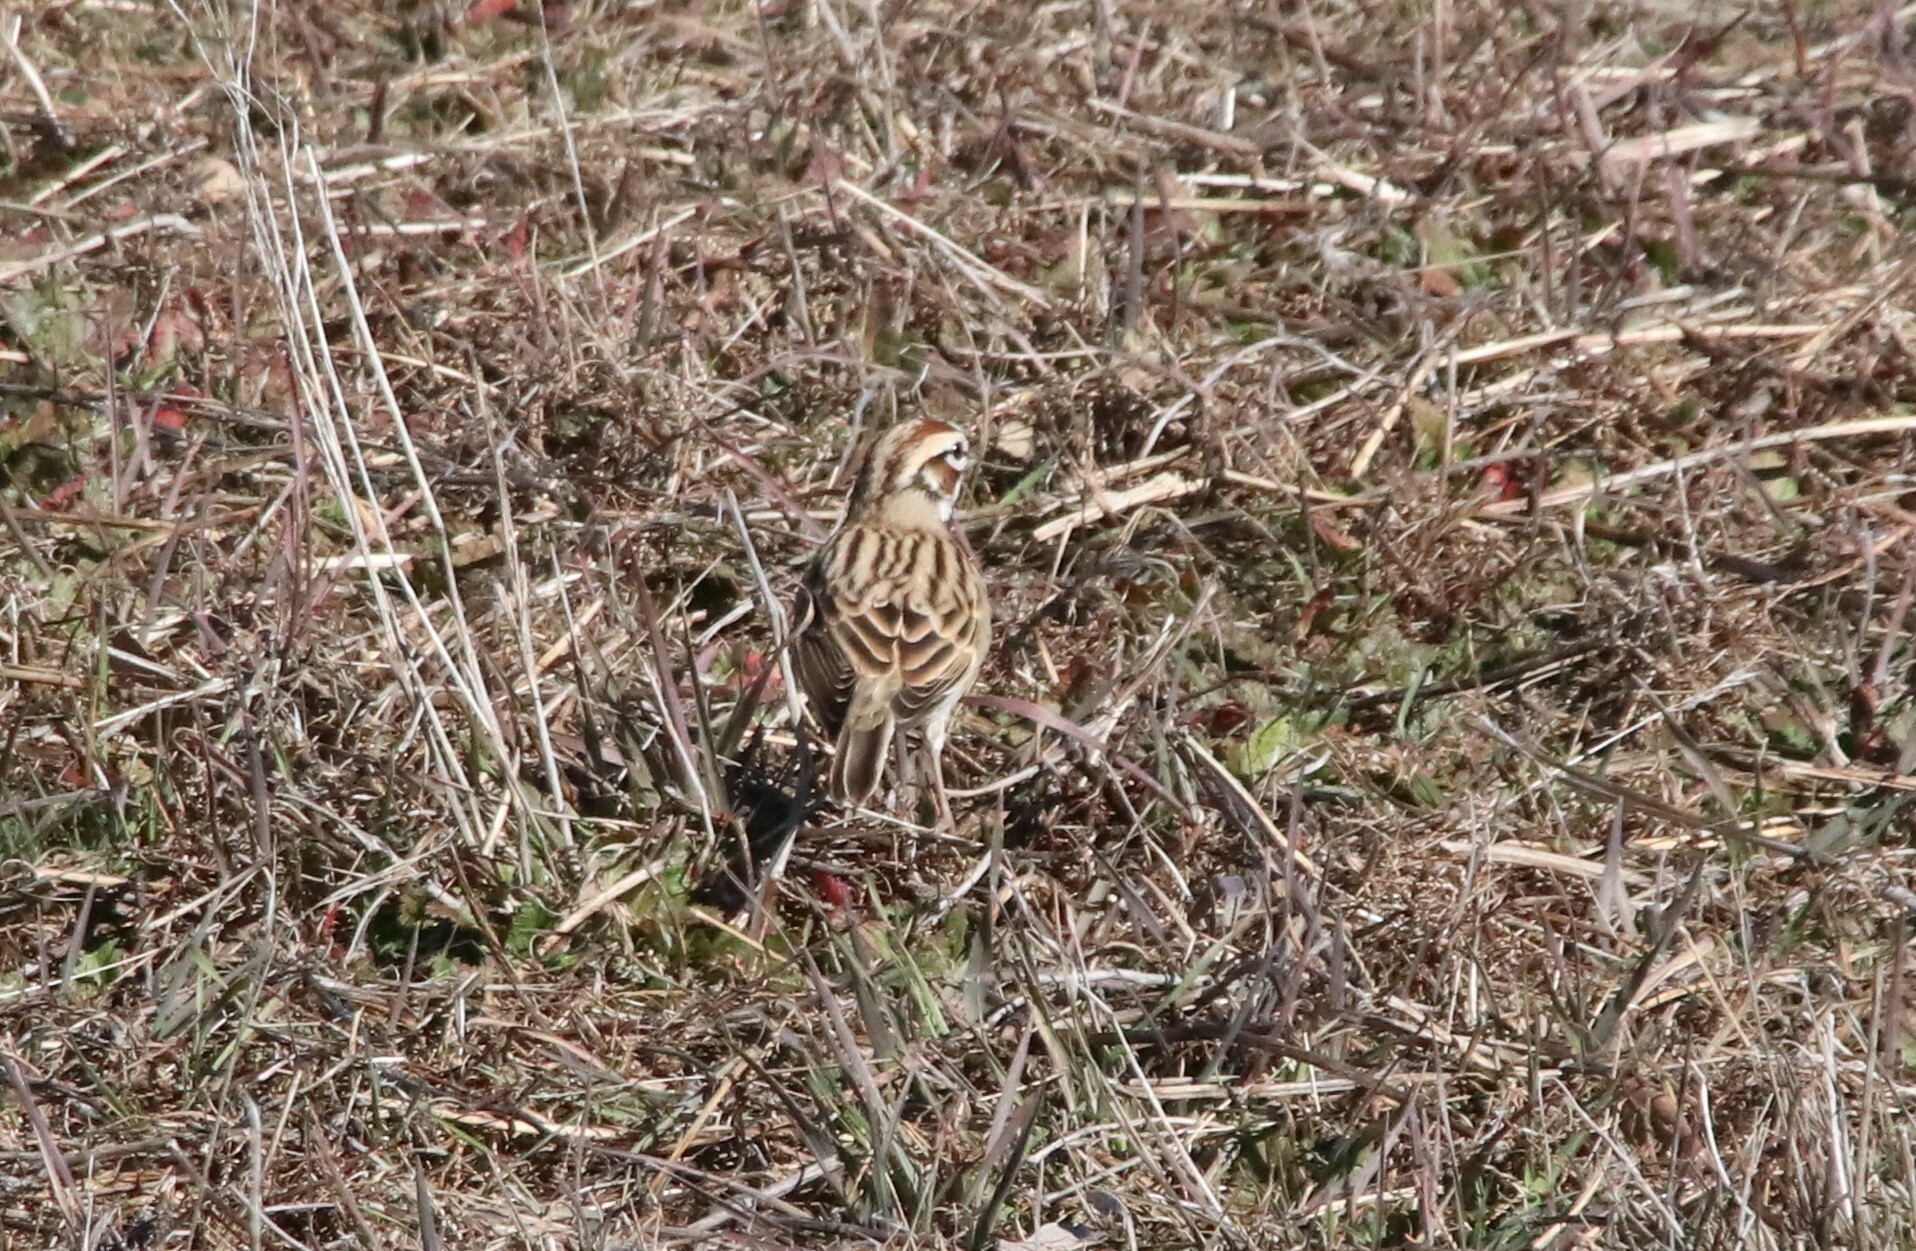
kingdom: Animalia
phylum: Chordata
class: Aves
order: Passeriformes
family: Passerellidae
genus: Chondestes
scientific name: Chondestes grammacus
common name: Lark sparrow
